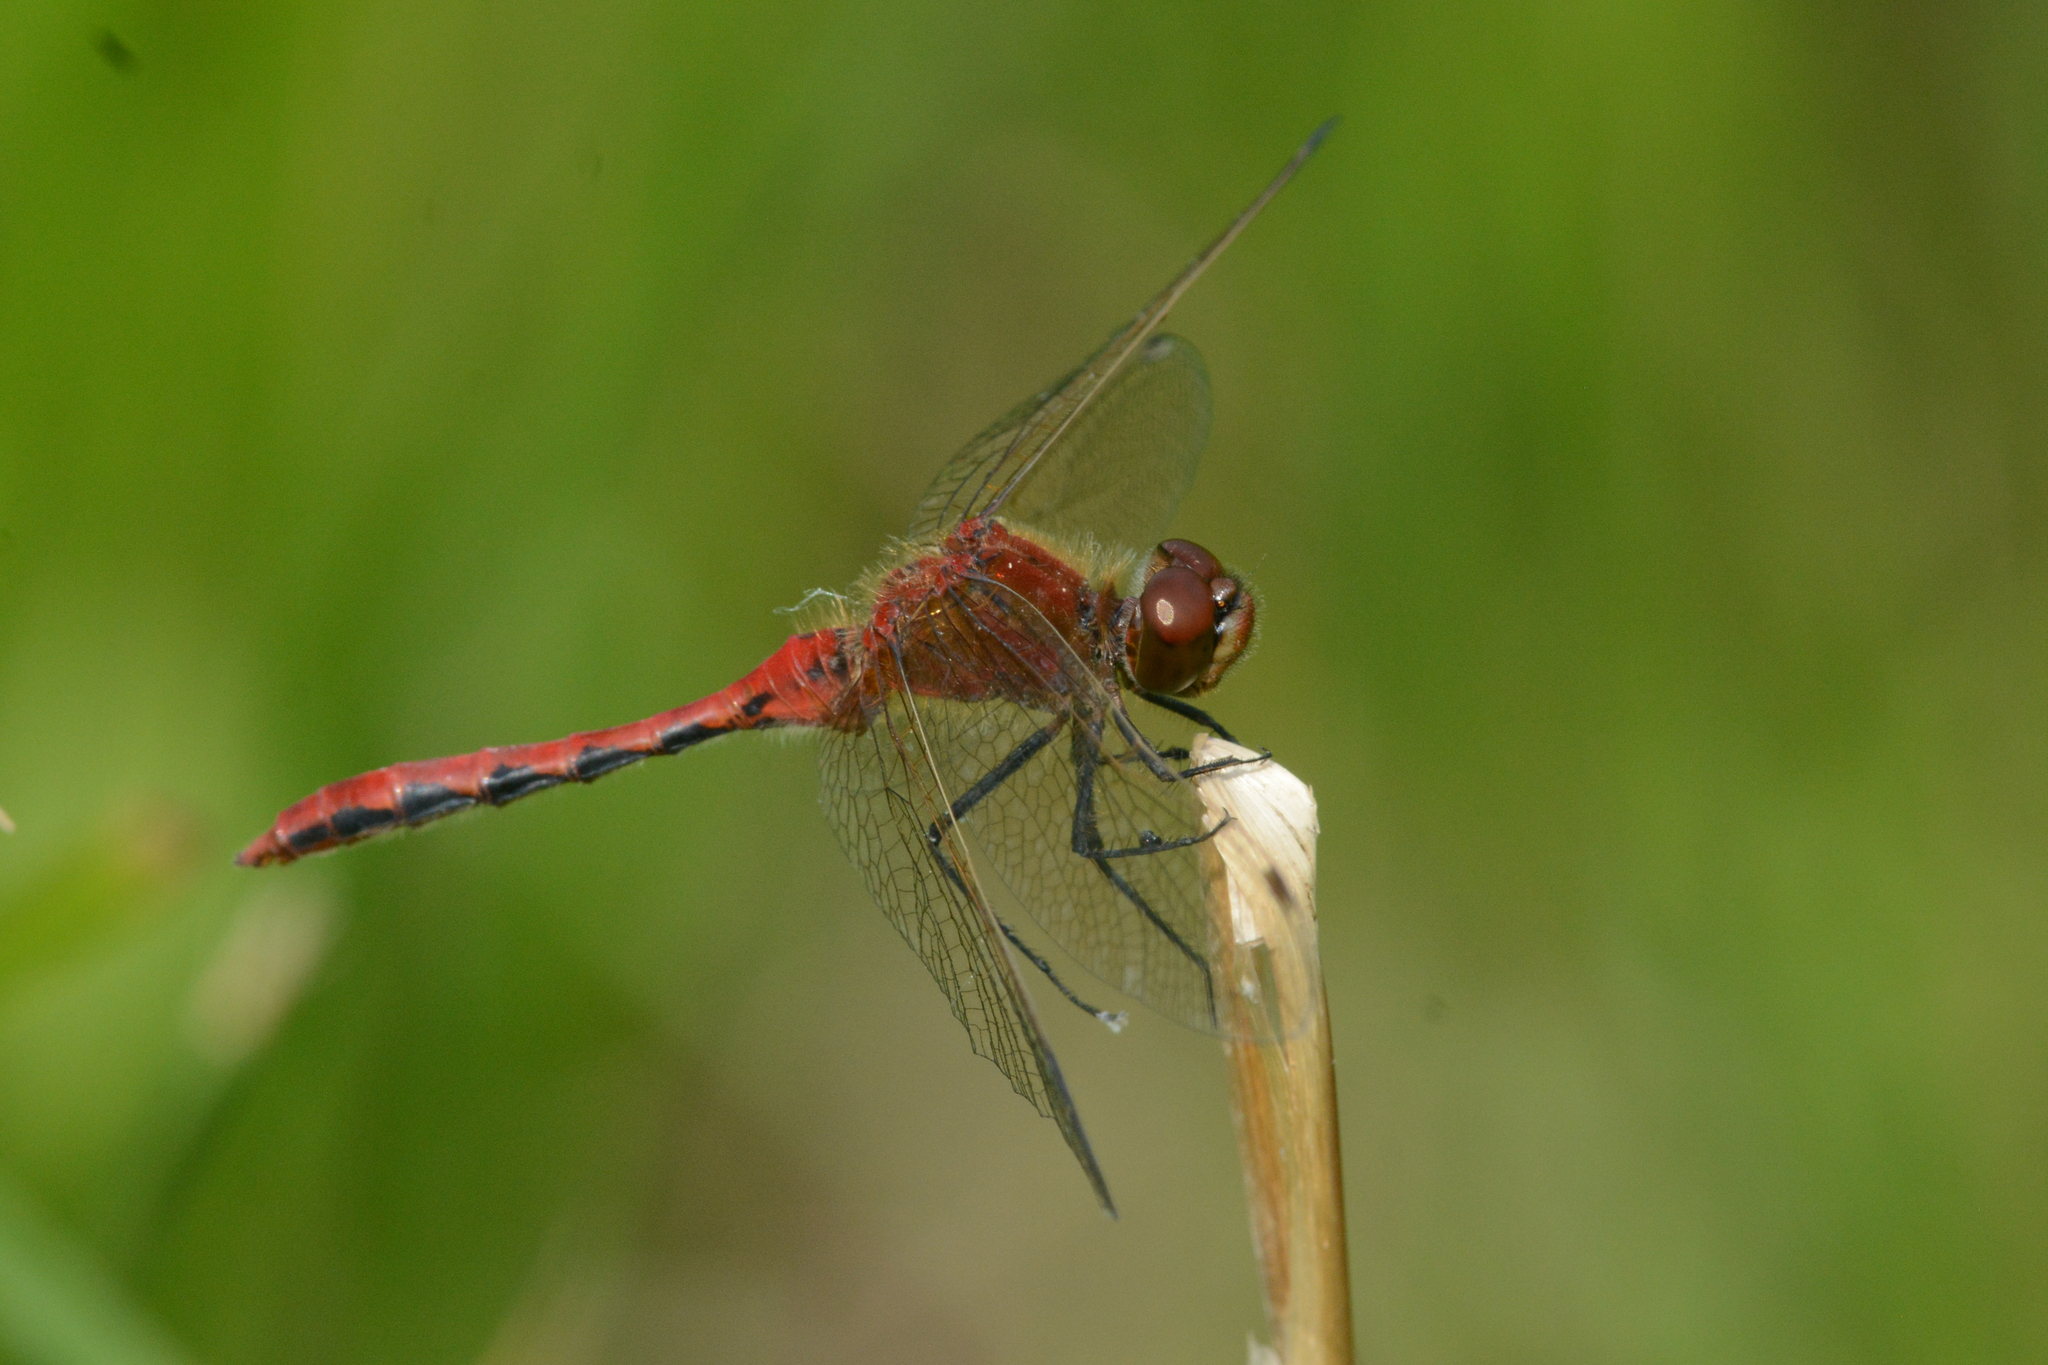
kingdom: Animalia
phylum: Arthropoda
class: Insecta
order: Odonata
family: Libellulidae
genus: Sympetrum
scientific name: Sympetrum internum
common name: Cherry-faced meadowhawk
